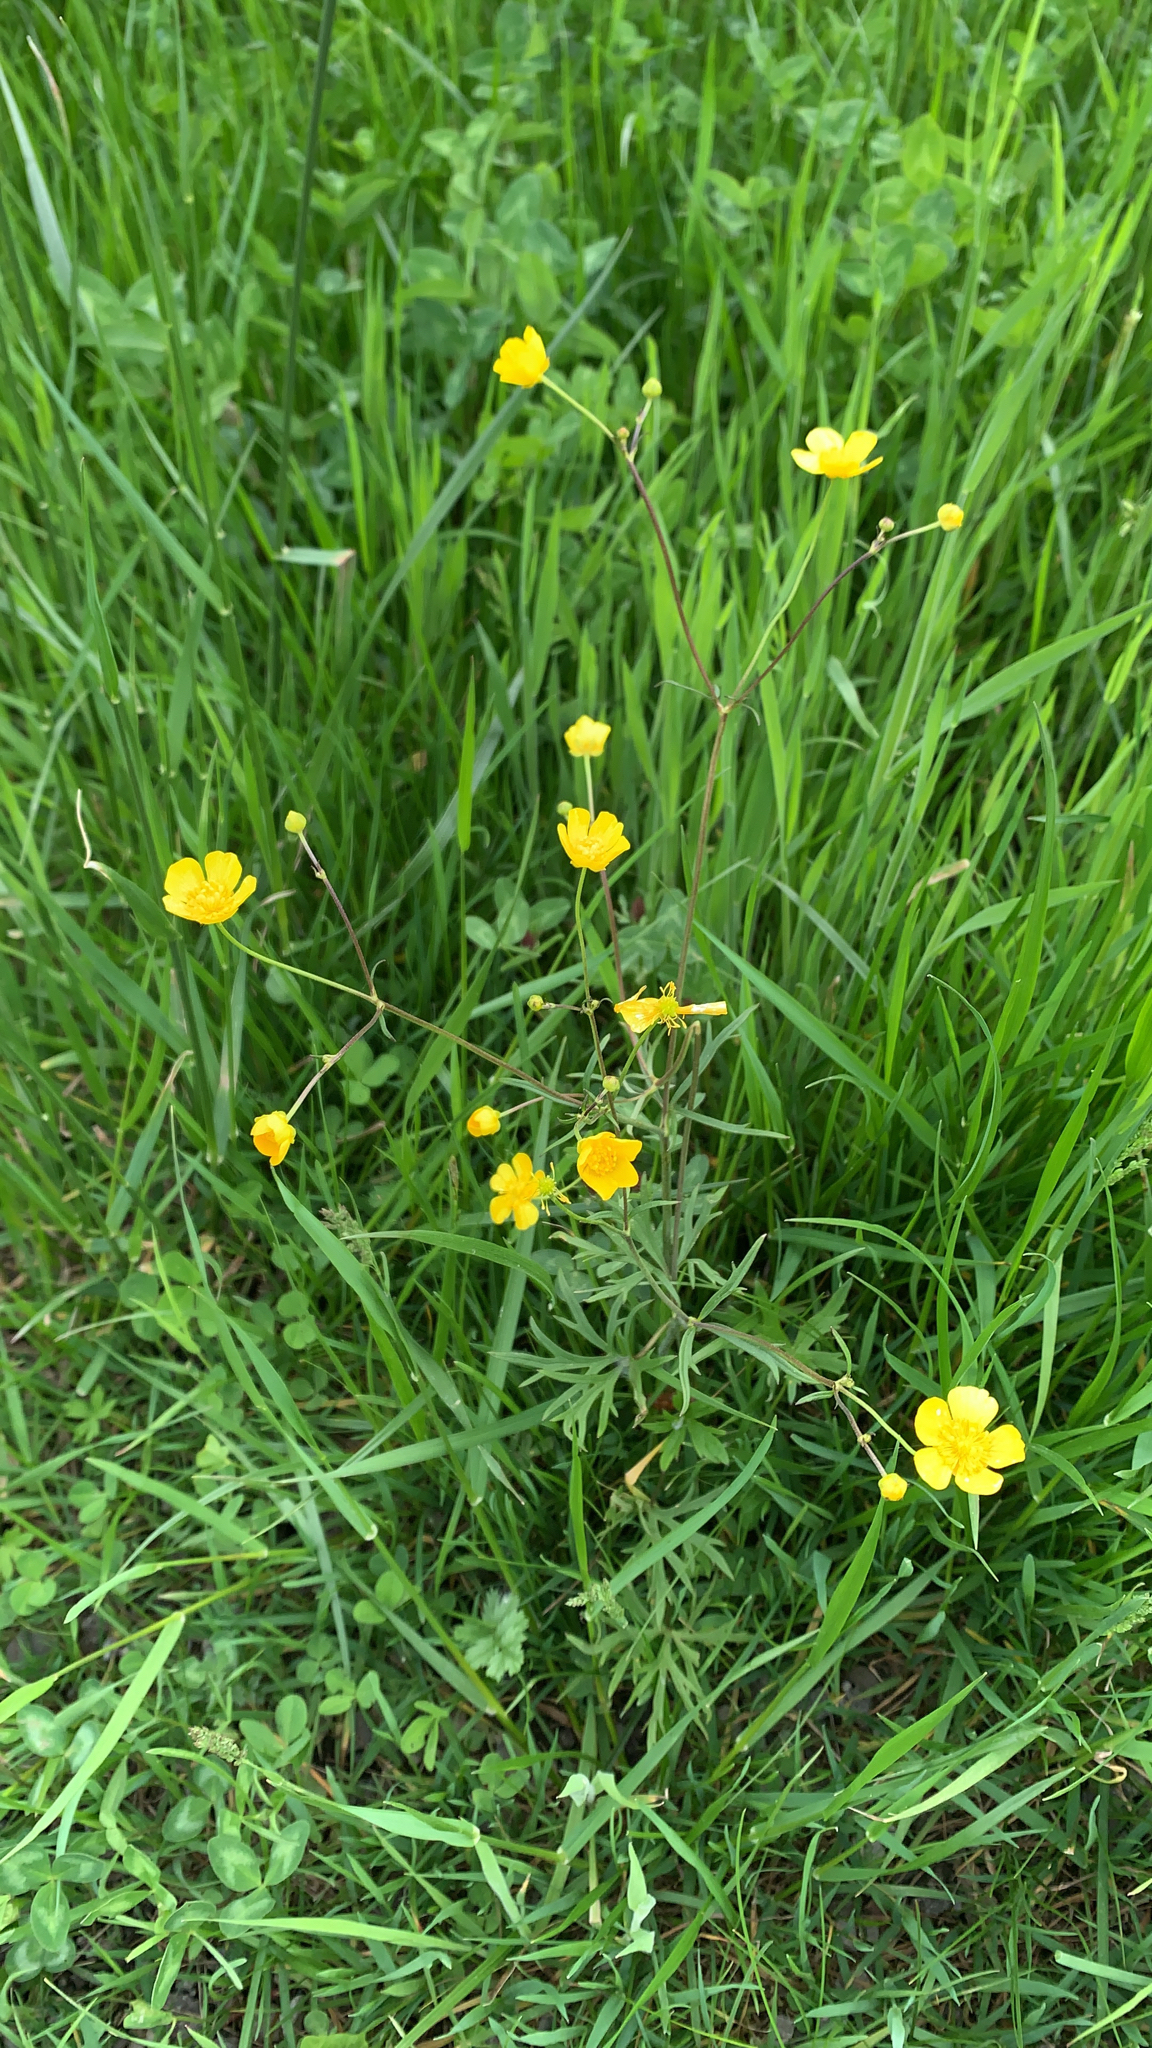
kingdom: Plantae
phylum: Tracheophyta
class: Magnoliopsida
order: Ranunculales
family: Ranunculaceae
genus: Ranunculus
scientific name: Ranunculus acris
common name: Meadow buttercup
